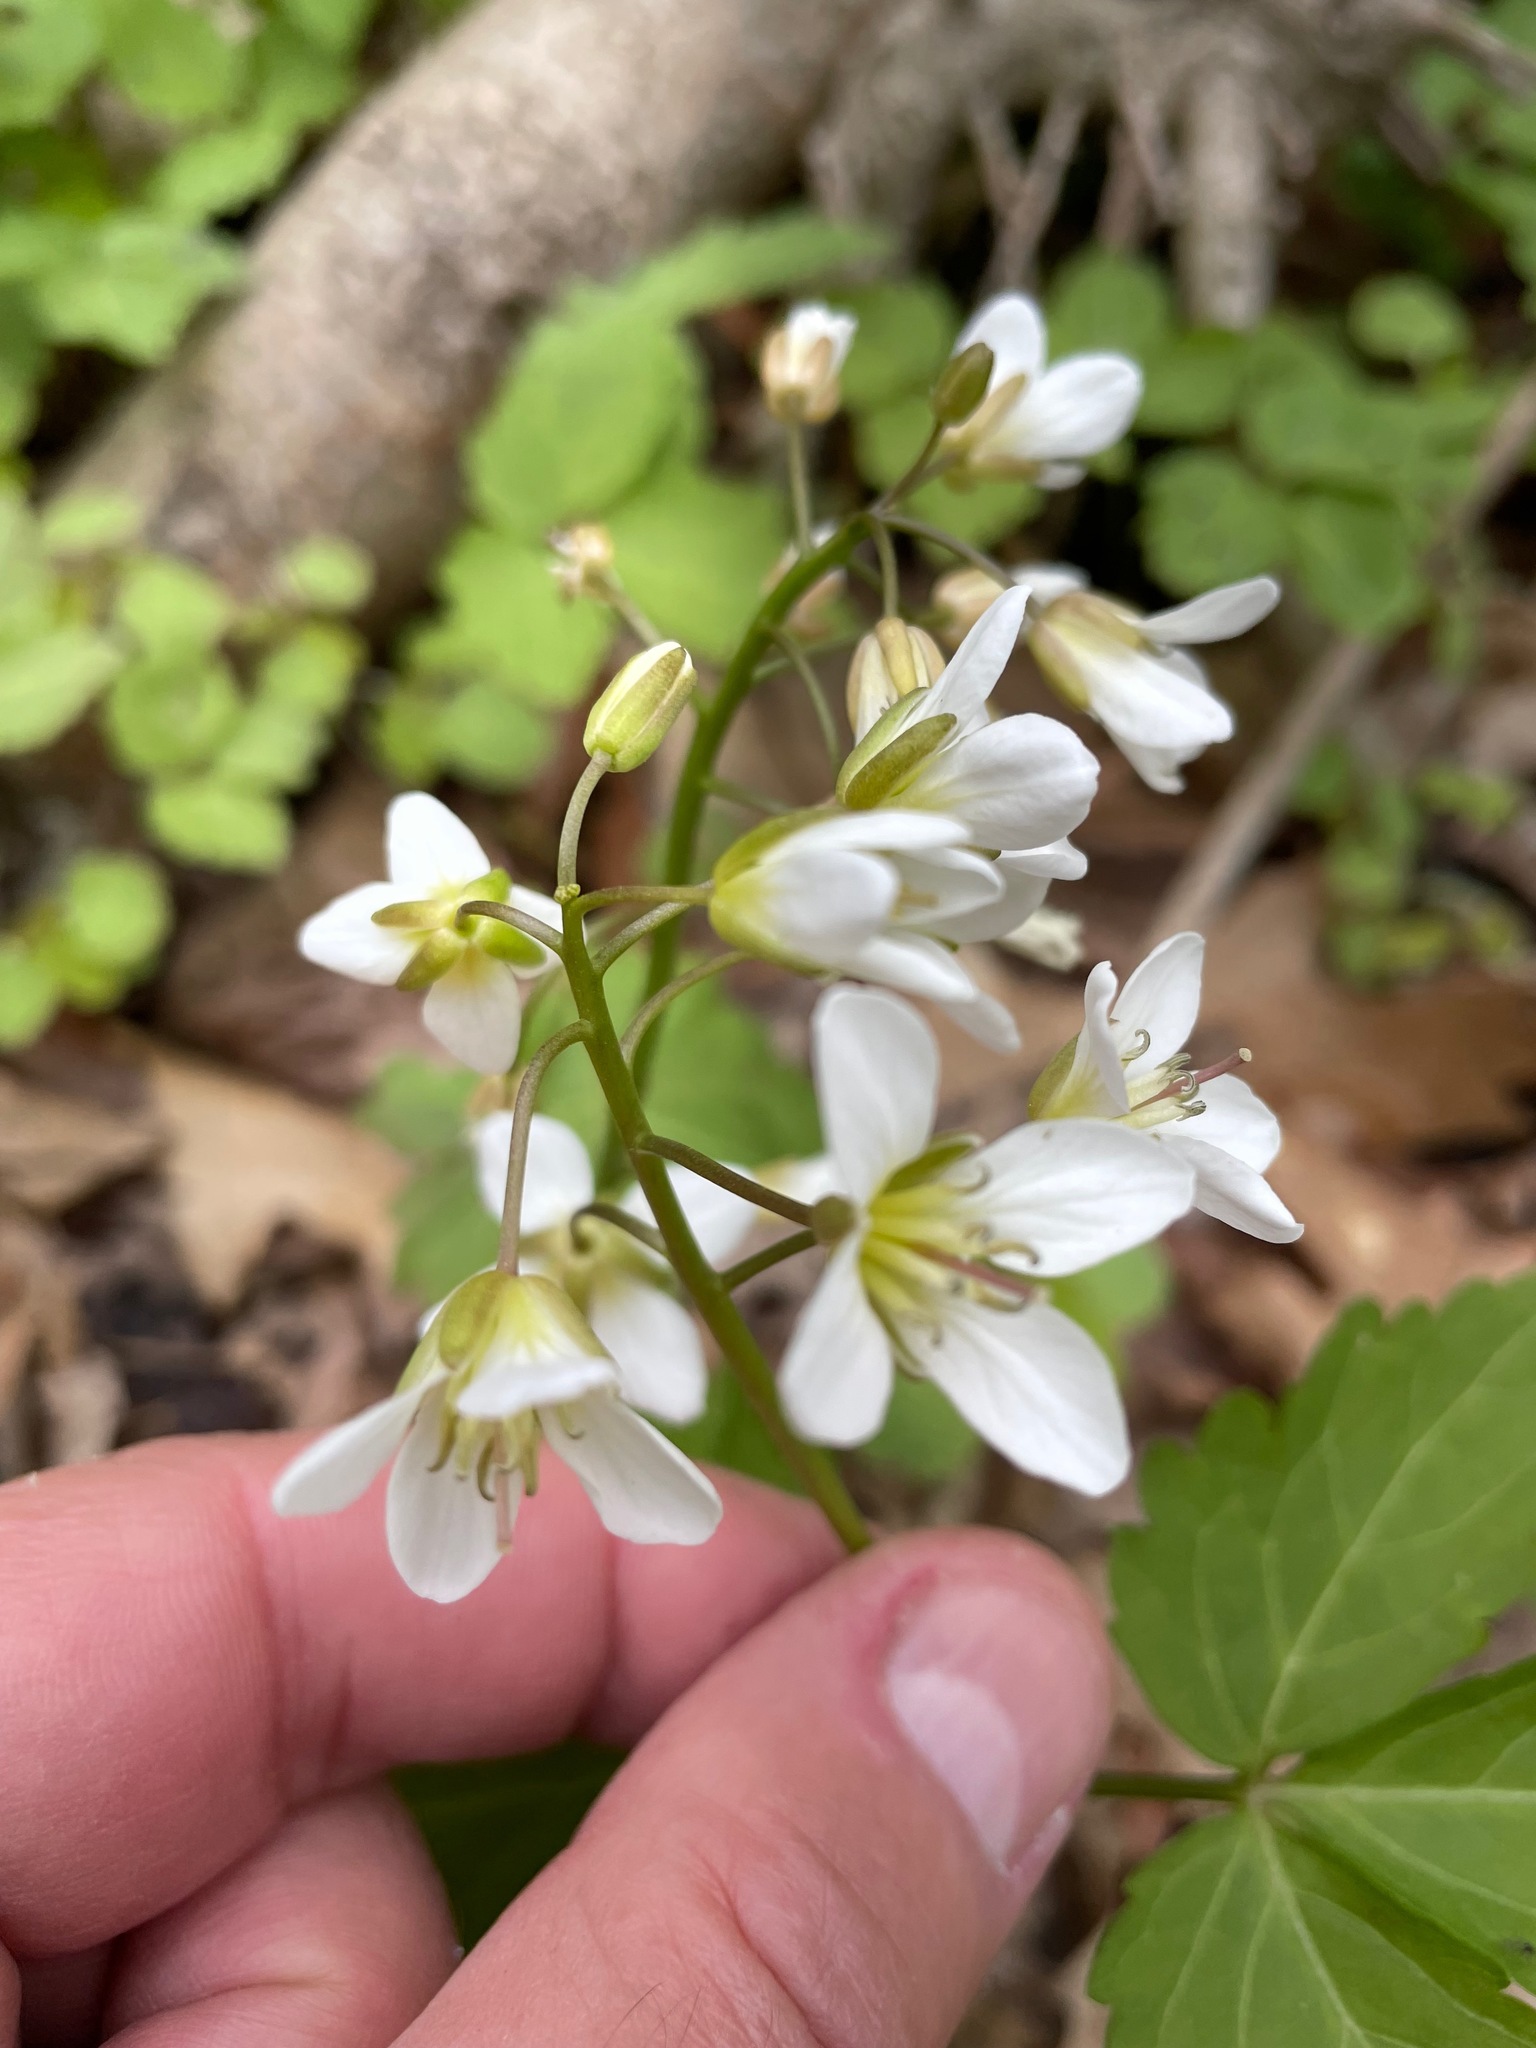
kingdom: Plantae
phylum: Tracheophyta
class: Magnoliopsida
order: Brassicales
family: Brassicaceae
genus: Cardamine
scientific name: Cardamine diphylla
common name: Broad-leaved toothwort
